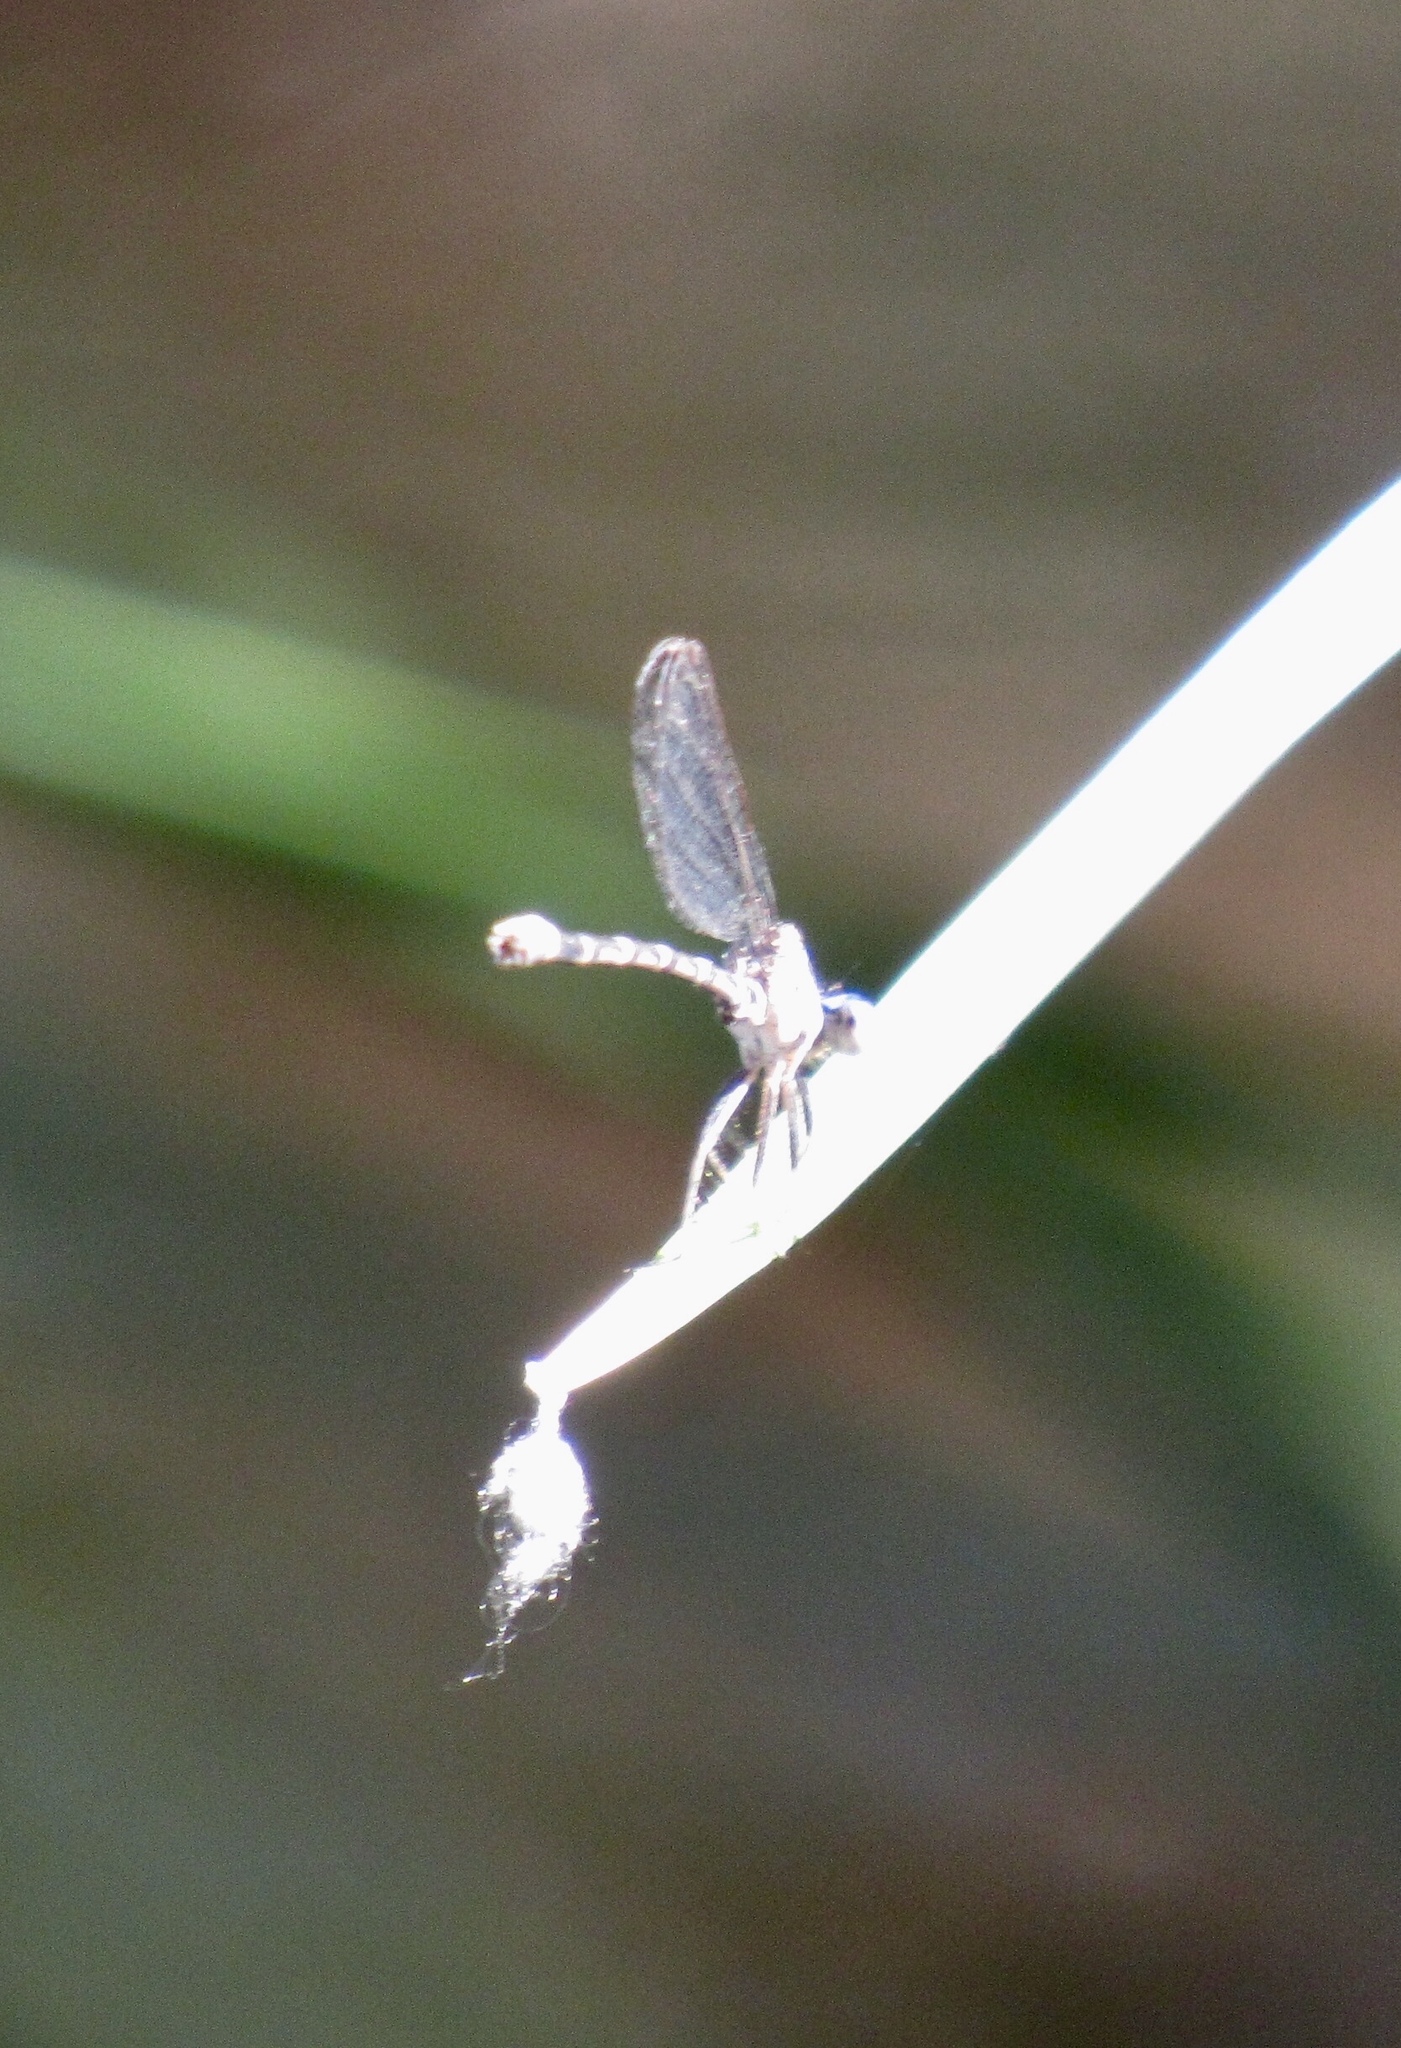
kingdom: Animalia
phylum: Arthropoda
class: Insecta
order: Odonata
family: Coenagrionidae
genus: Argia
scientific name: Argia sedula
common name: Blue-ringed dancer
